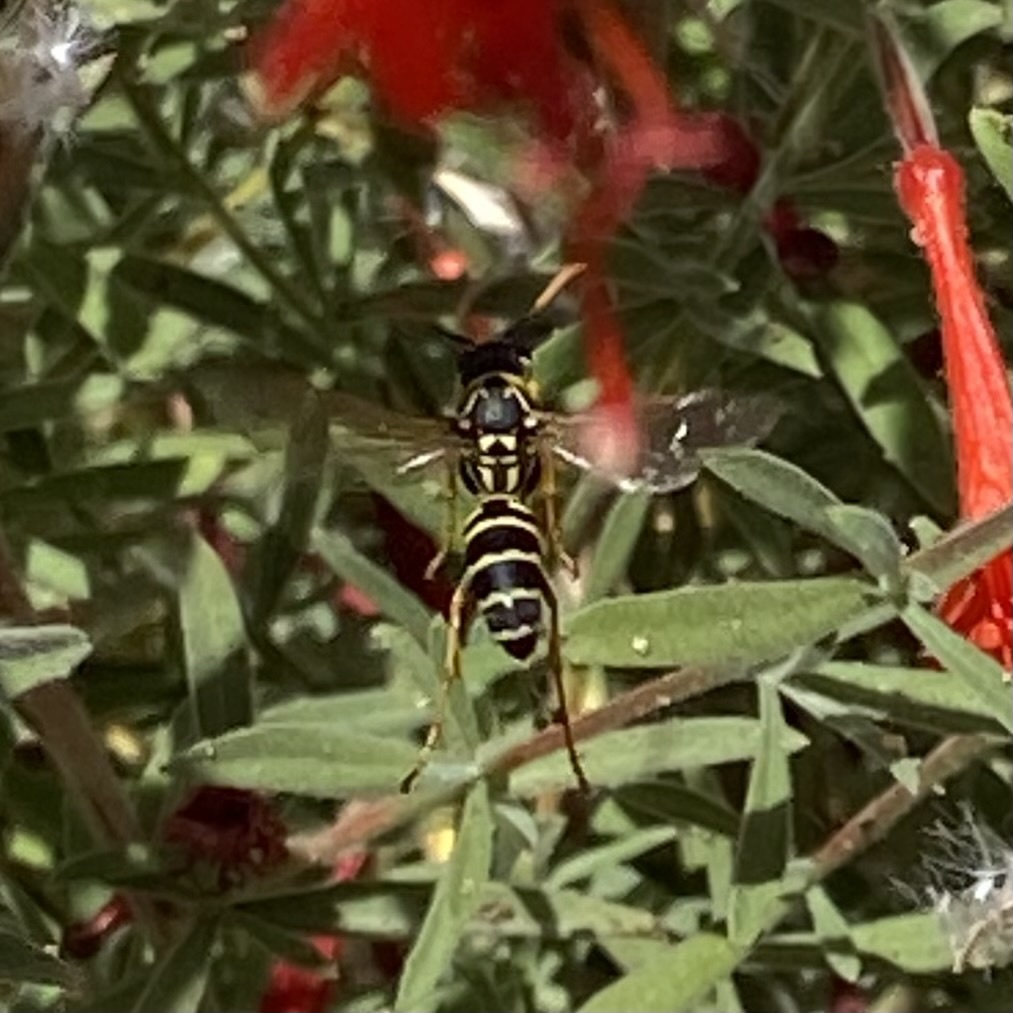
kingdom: Animalia
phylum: Arthropoda
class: Insecta
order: Hymenoptera
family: Eumenidae
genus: Polistes
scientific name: Polistes dominula
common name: Paper wasp
